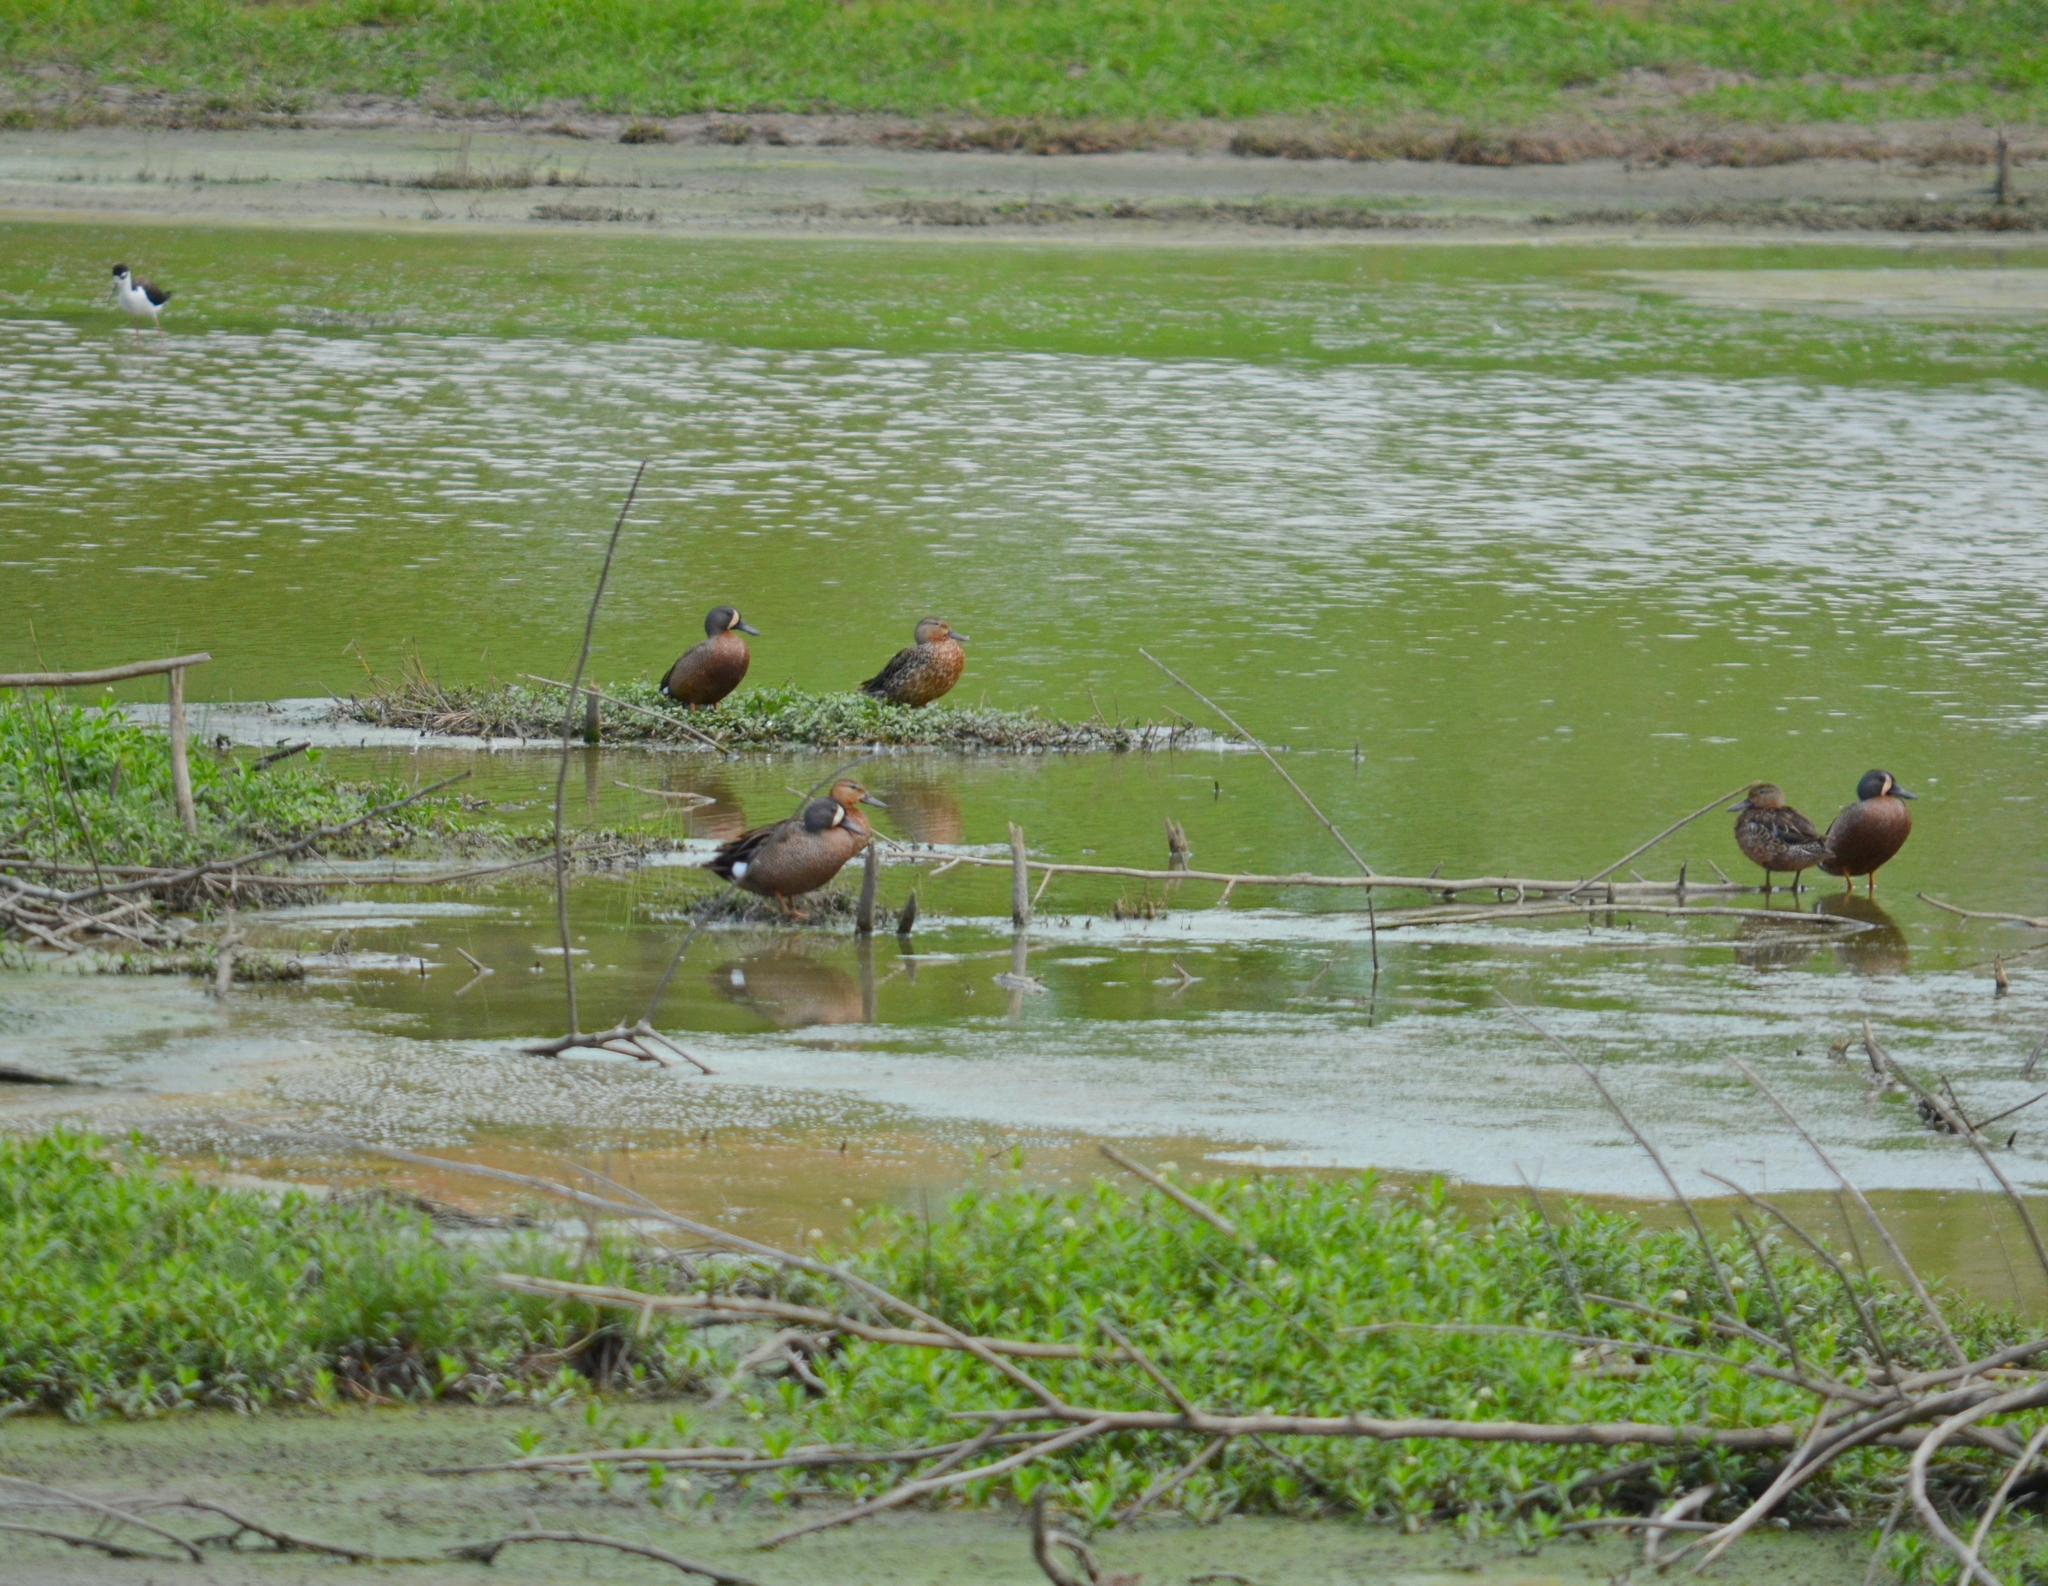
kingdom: Animalia
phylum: Chordata
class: Aves
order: Anseriformes
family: Anatidae
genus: Spatula
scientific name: Spatula discors
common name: Blue-winged teal
